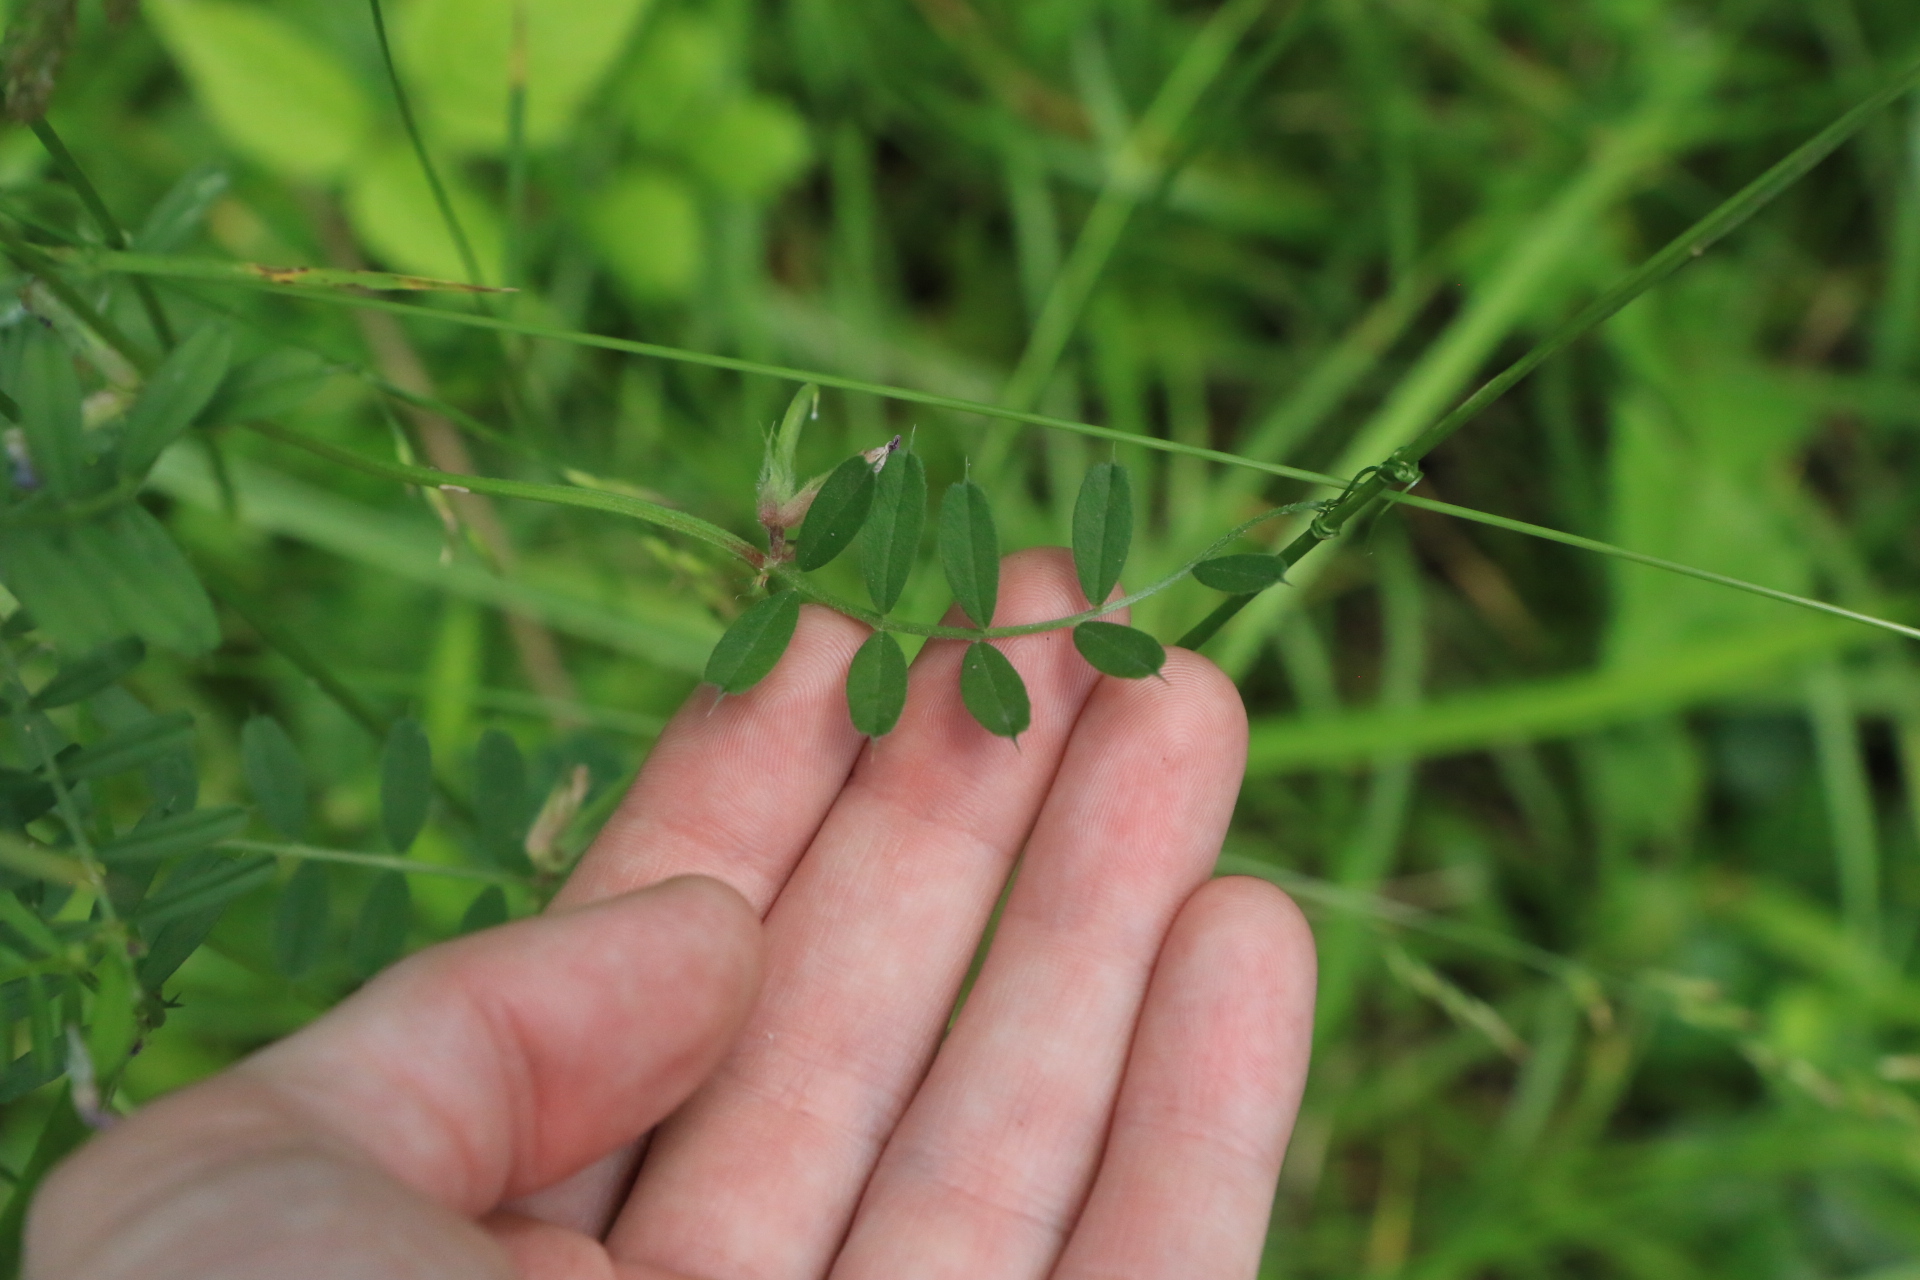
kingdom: Plantae
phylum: Tracheophyta
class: Magnoliopsida
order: Fabales
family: Fabaceae
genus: Vicia
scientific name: Vicia sativa
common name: Garden vetch
